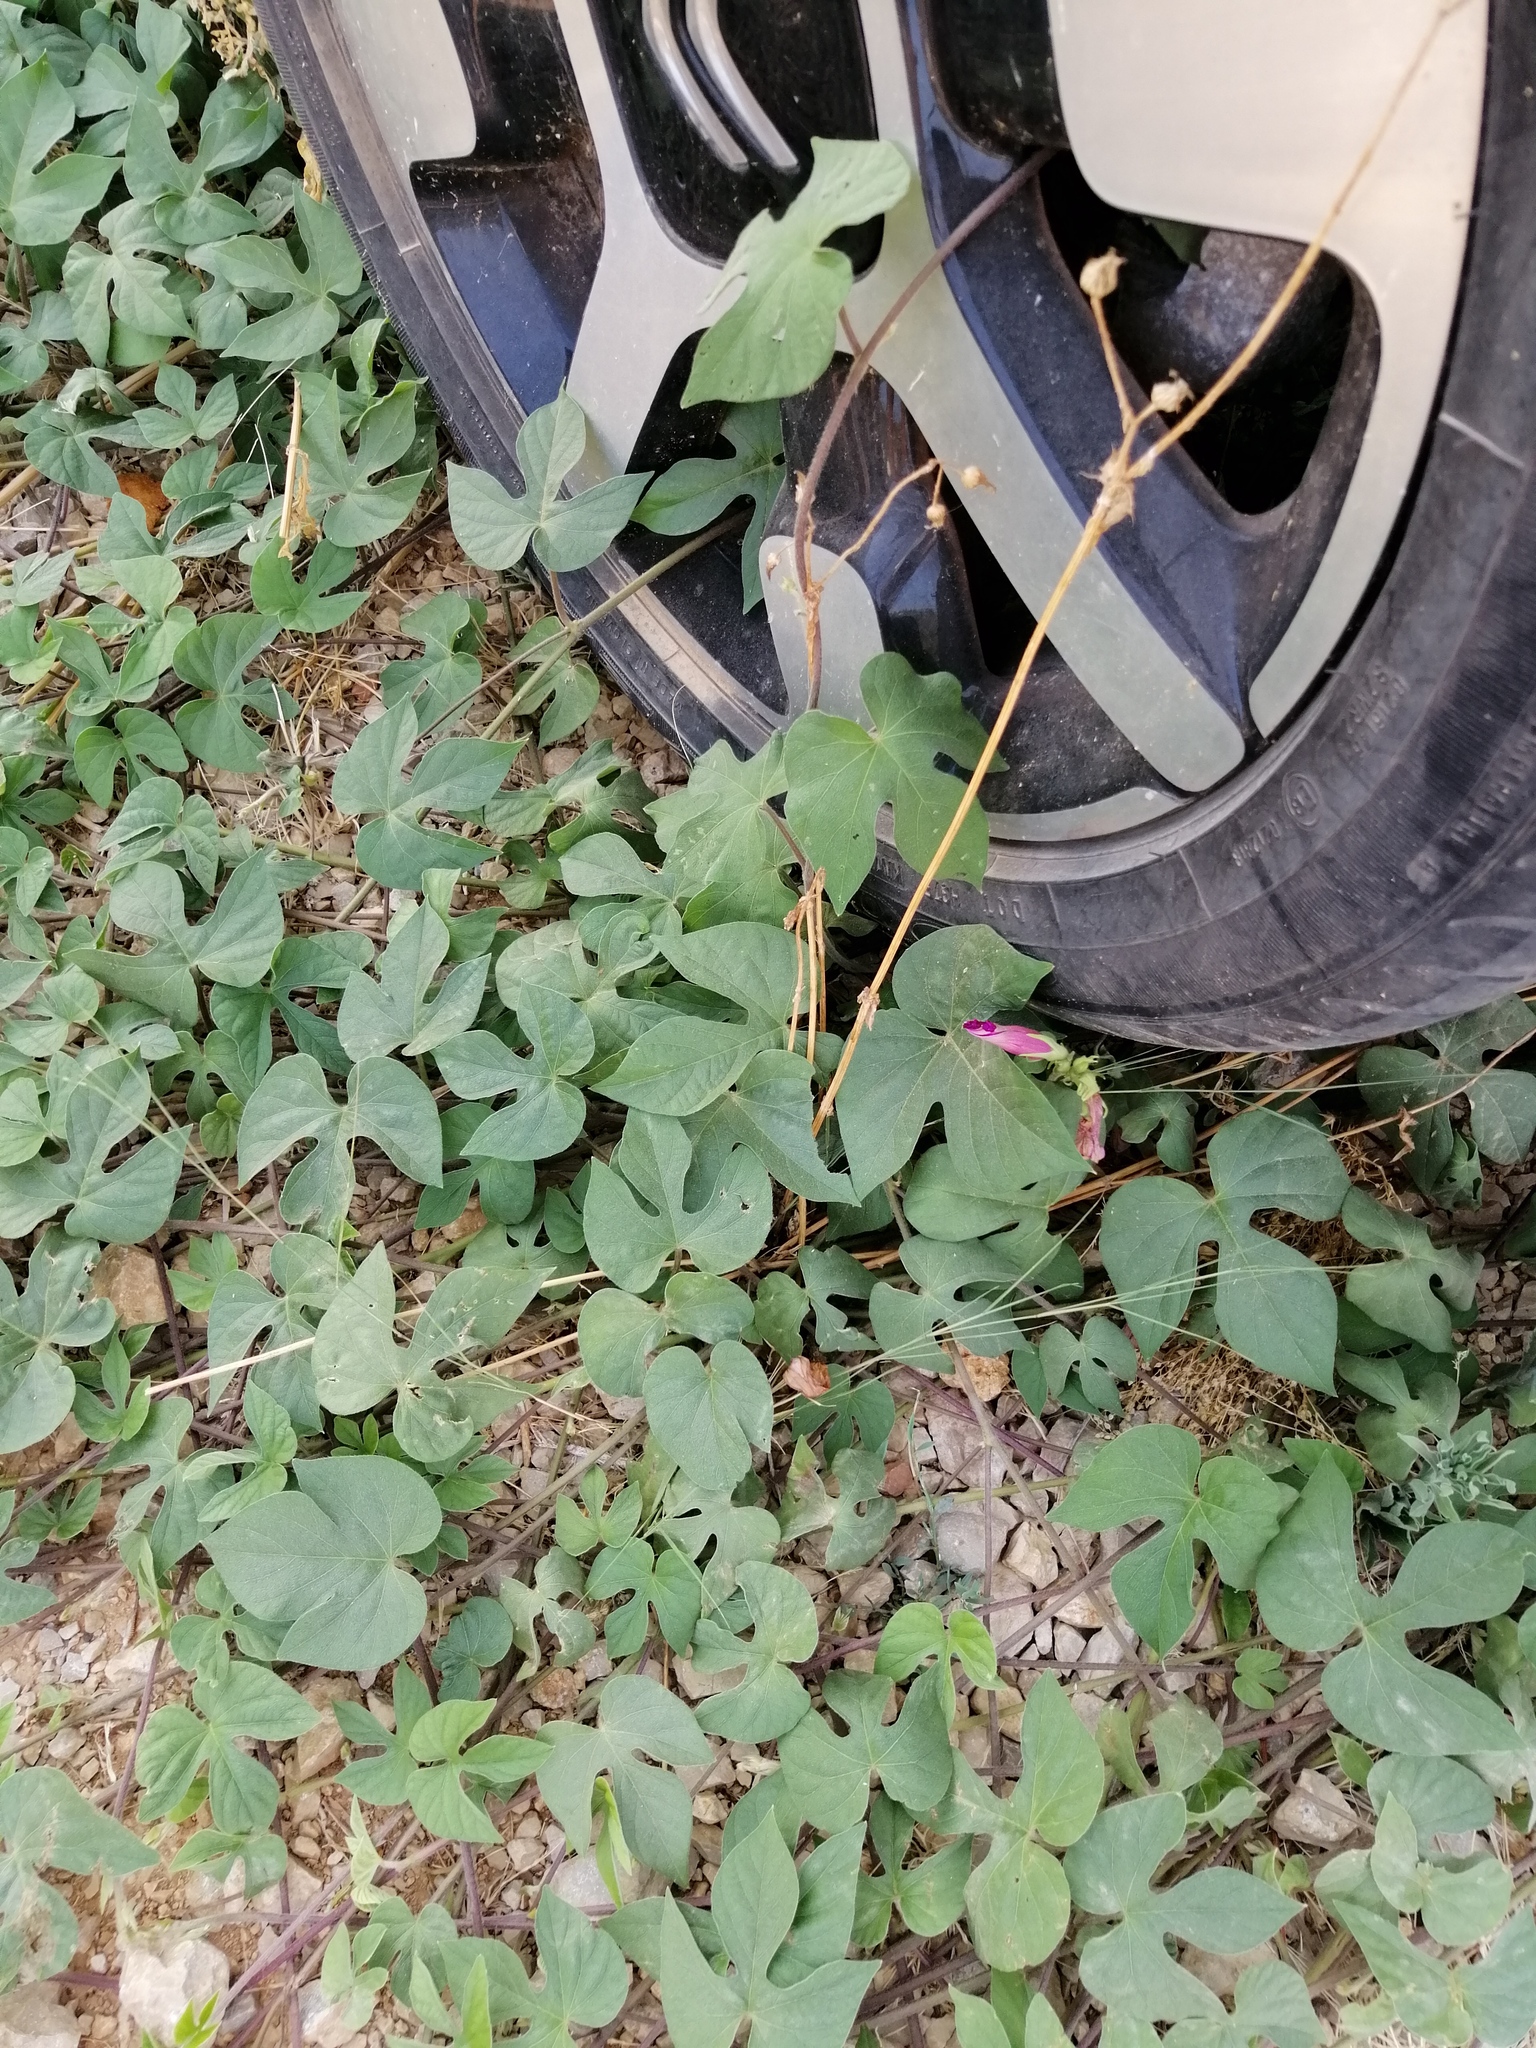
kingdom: Plantae
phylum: Tracheophyta
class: Magnoliopsida
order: Solanales
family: Convolvulaceae
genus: Ipomoea
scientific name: Ipomoea indica
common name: Blue dawnflower
